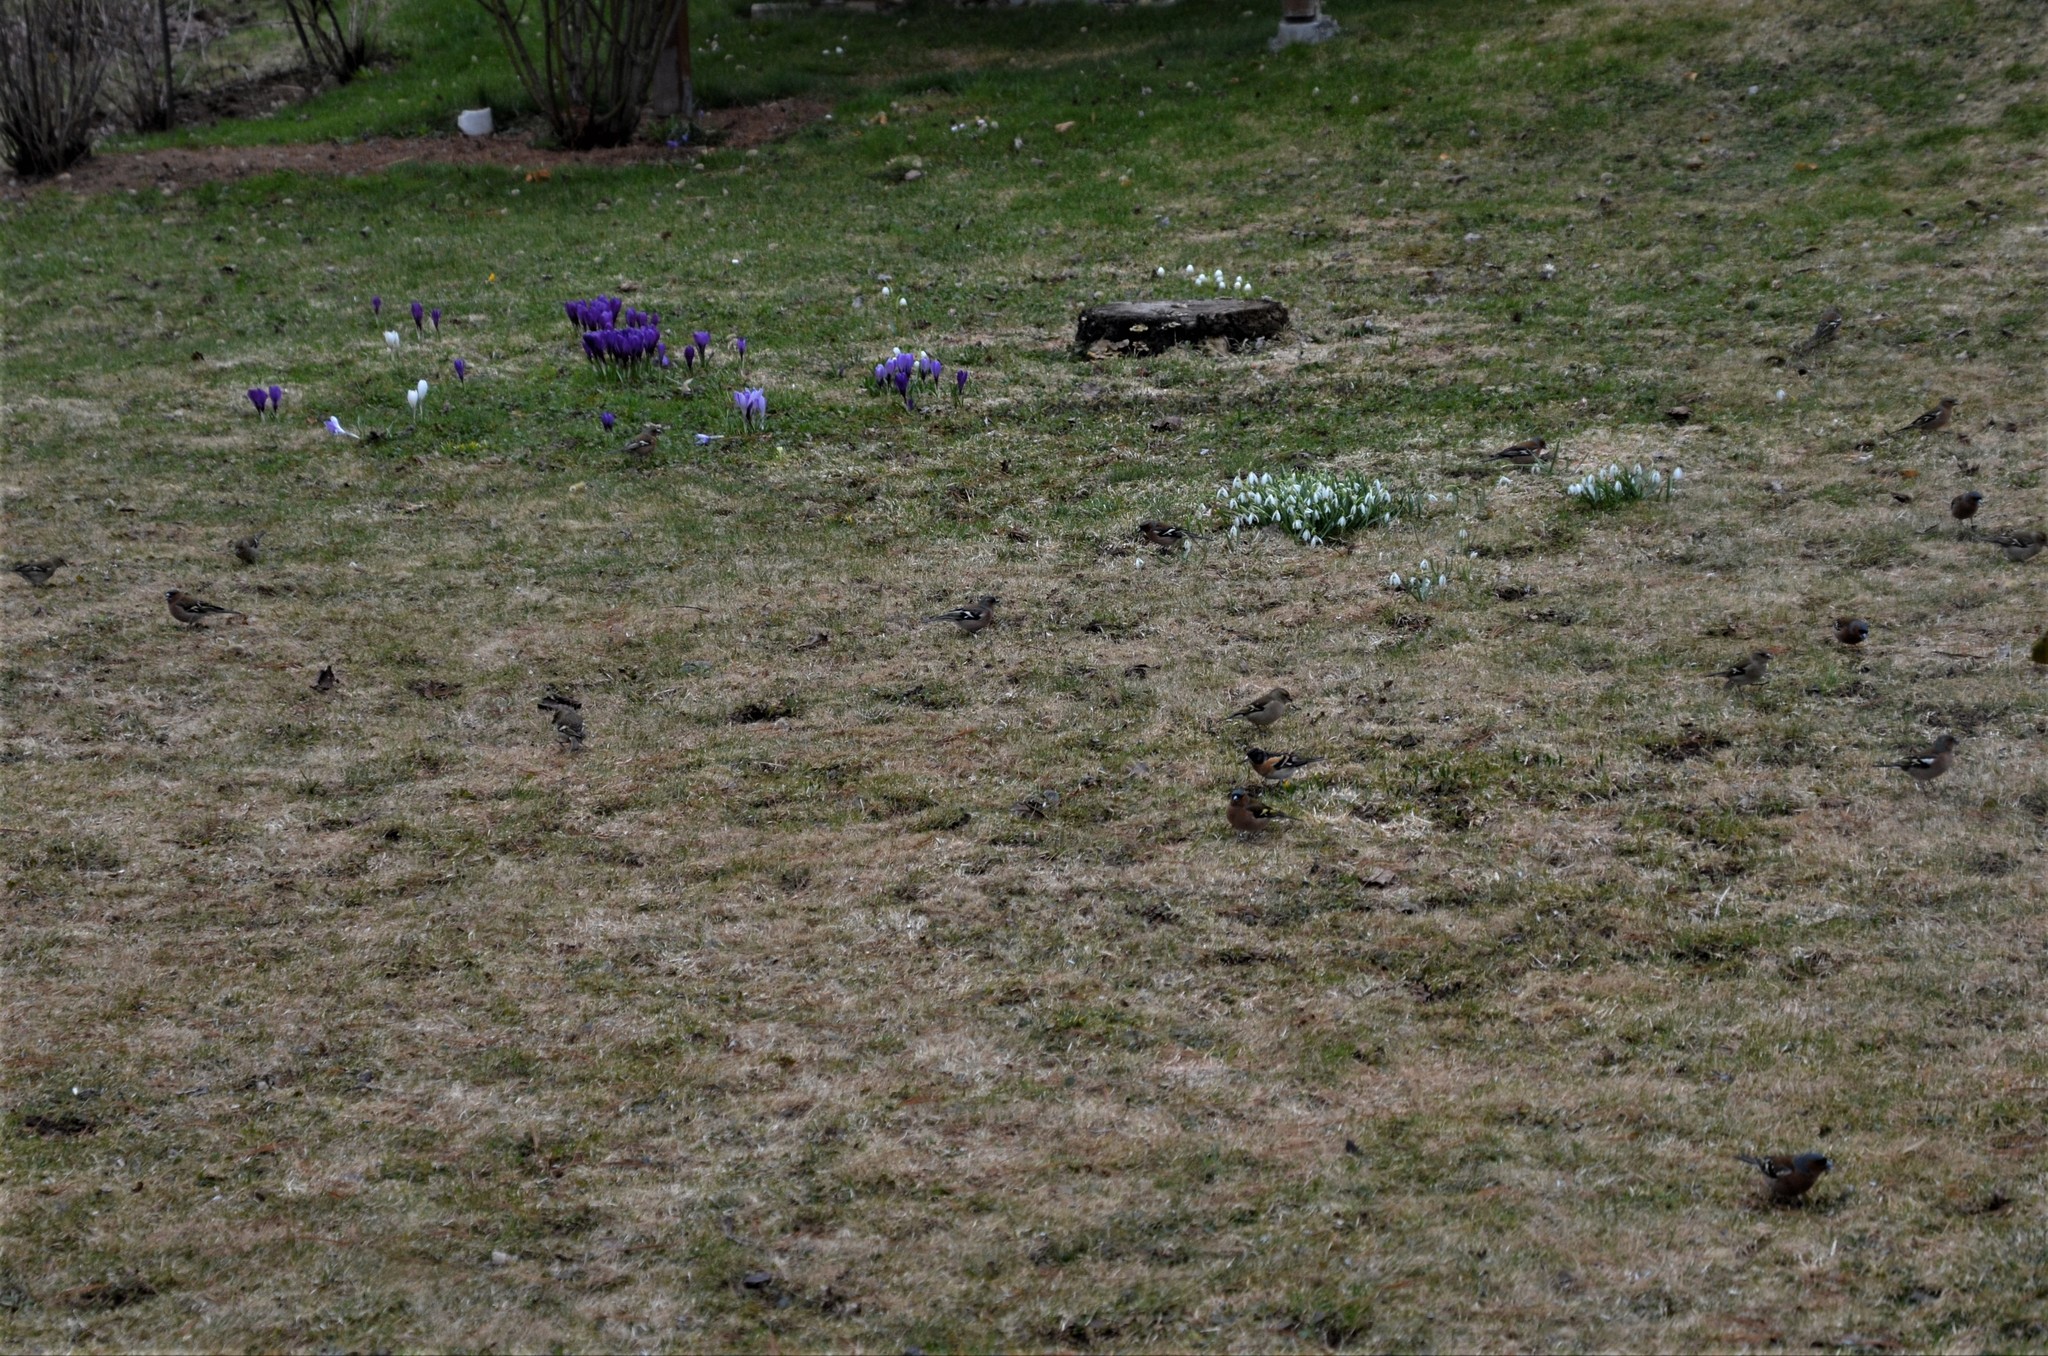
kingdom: Animalia
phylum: Chordata
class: Aves
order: Passeriformes
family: Fringillidae
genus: Fringilla
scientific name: Fringilla coelebs
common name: Common chaffinch
